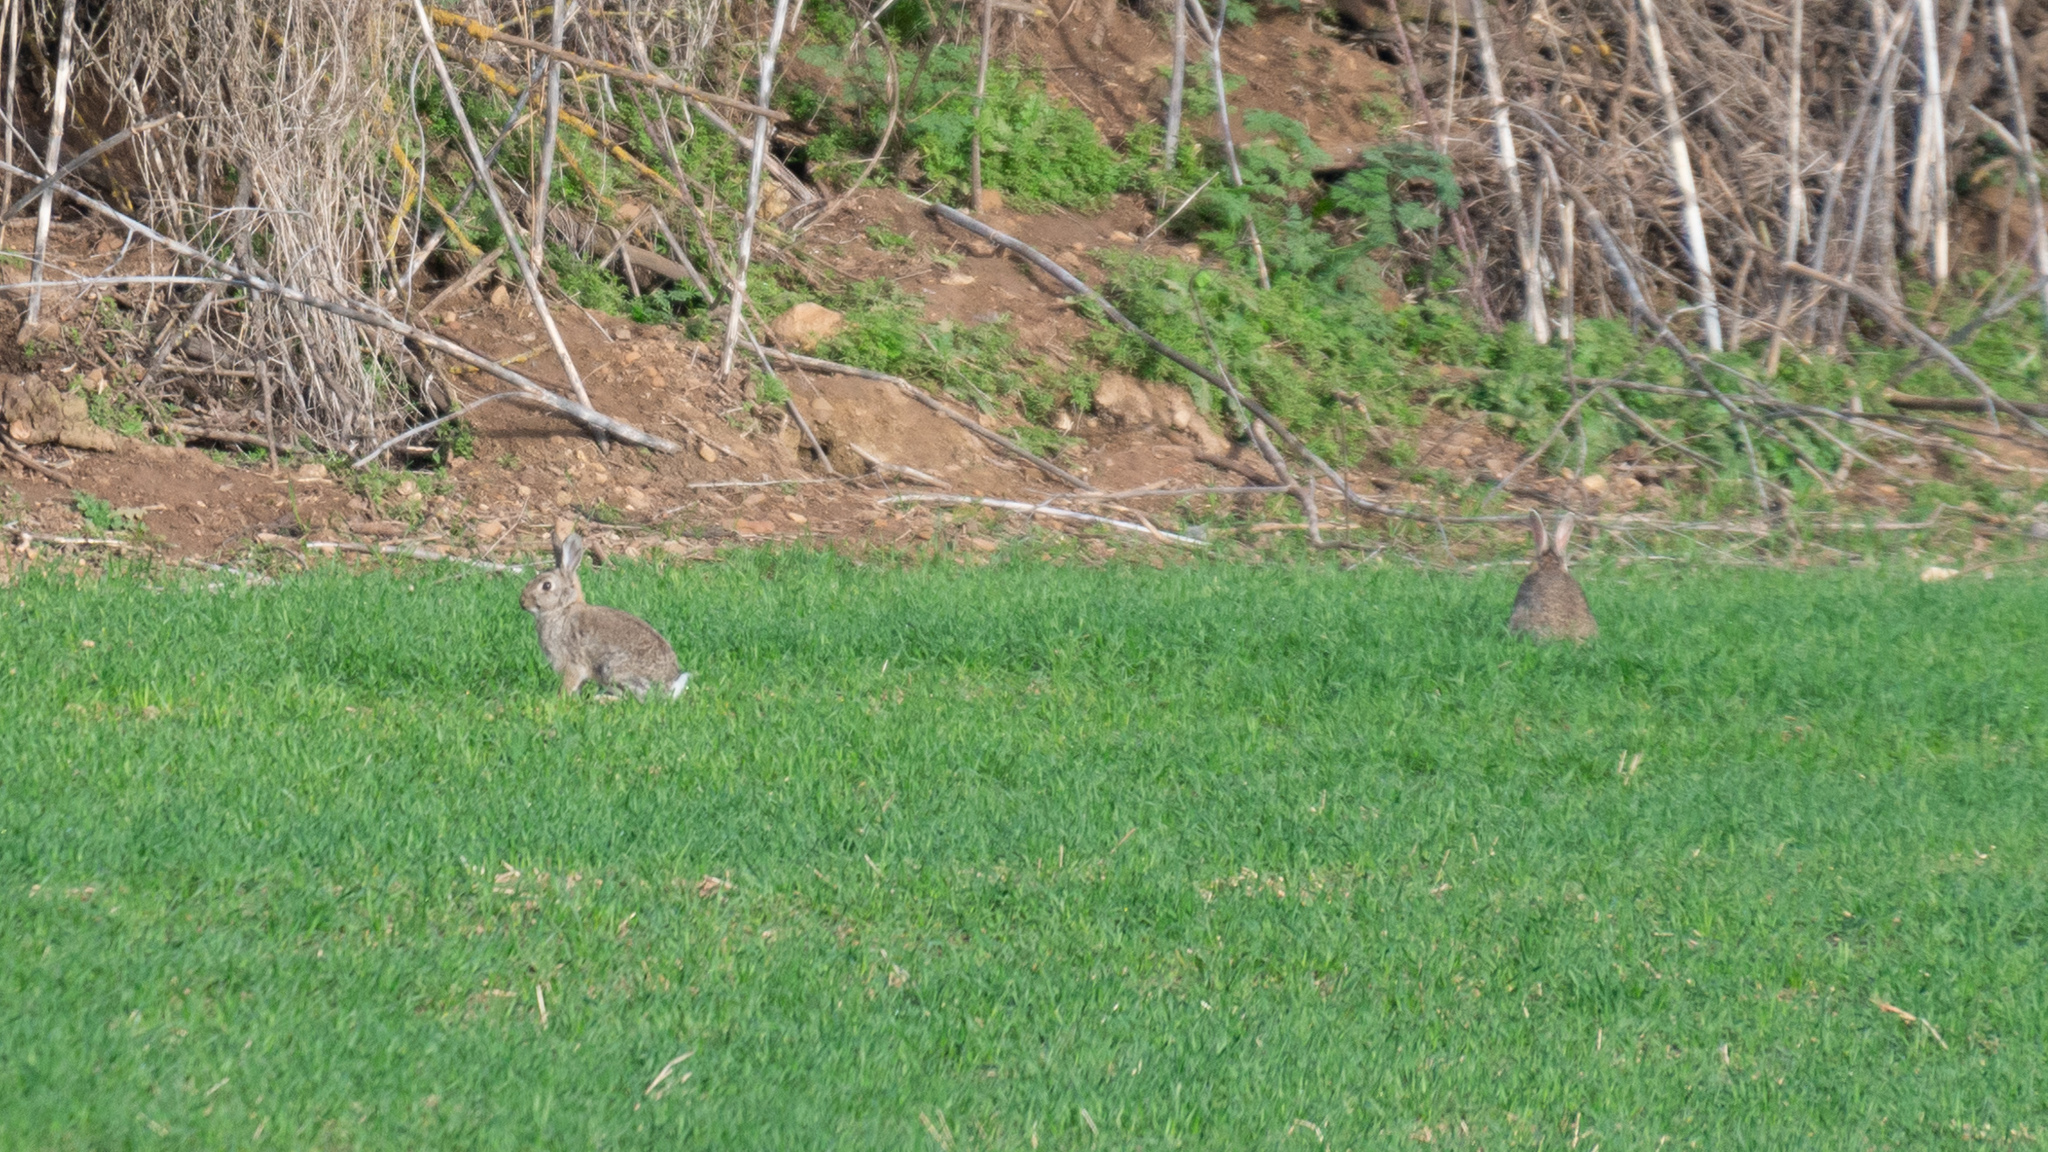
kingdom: Animalia
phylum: Chordata
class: Mammalia
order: Lagomorpha
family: Leporidae
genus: Oryctolagus
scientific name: Oryctolagus cuniculus
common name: European rabbit
